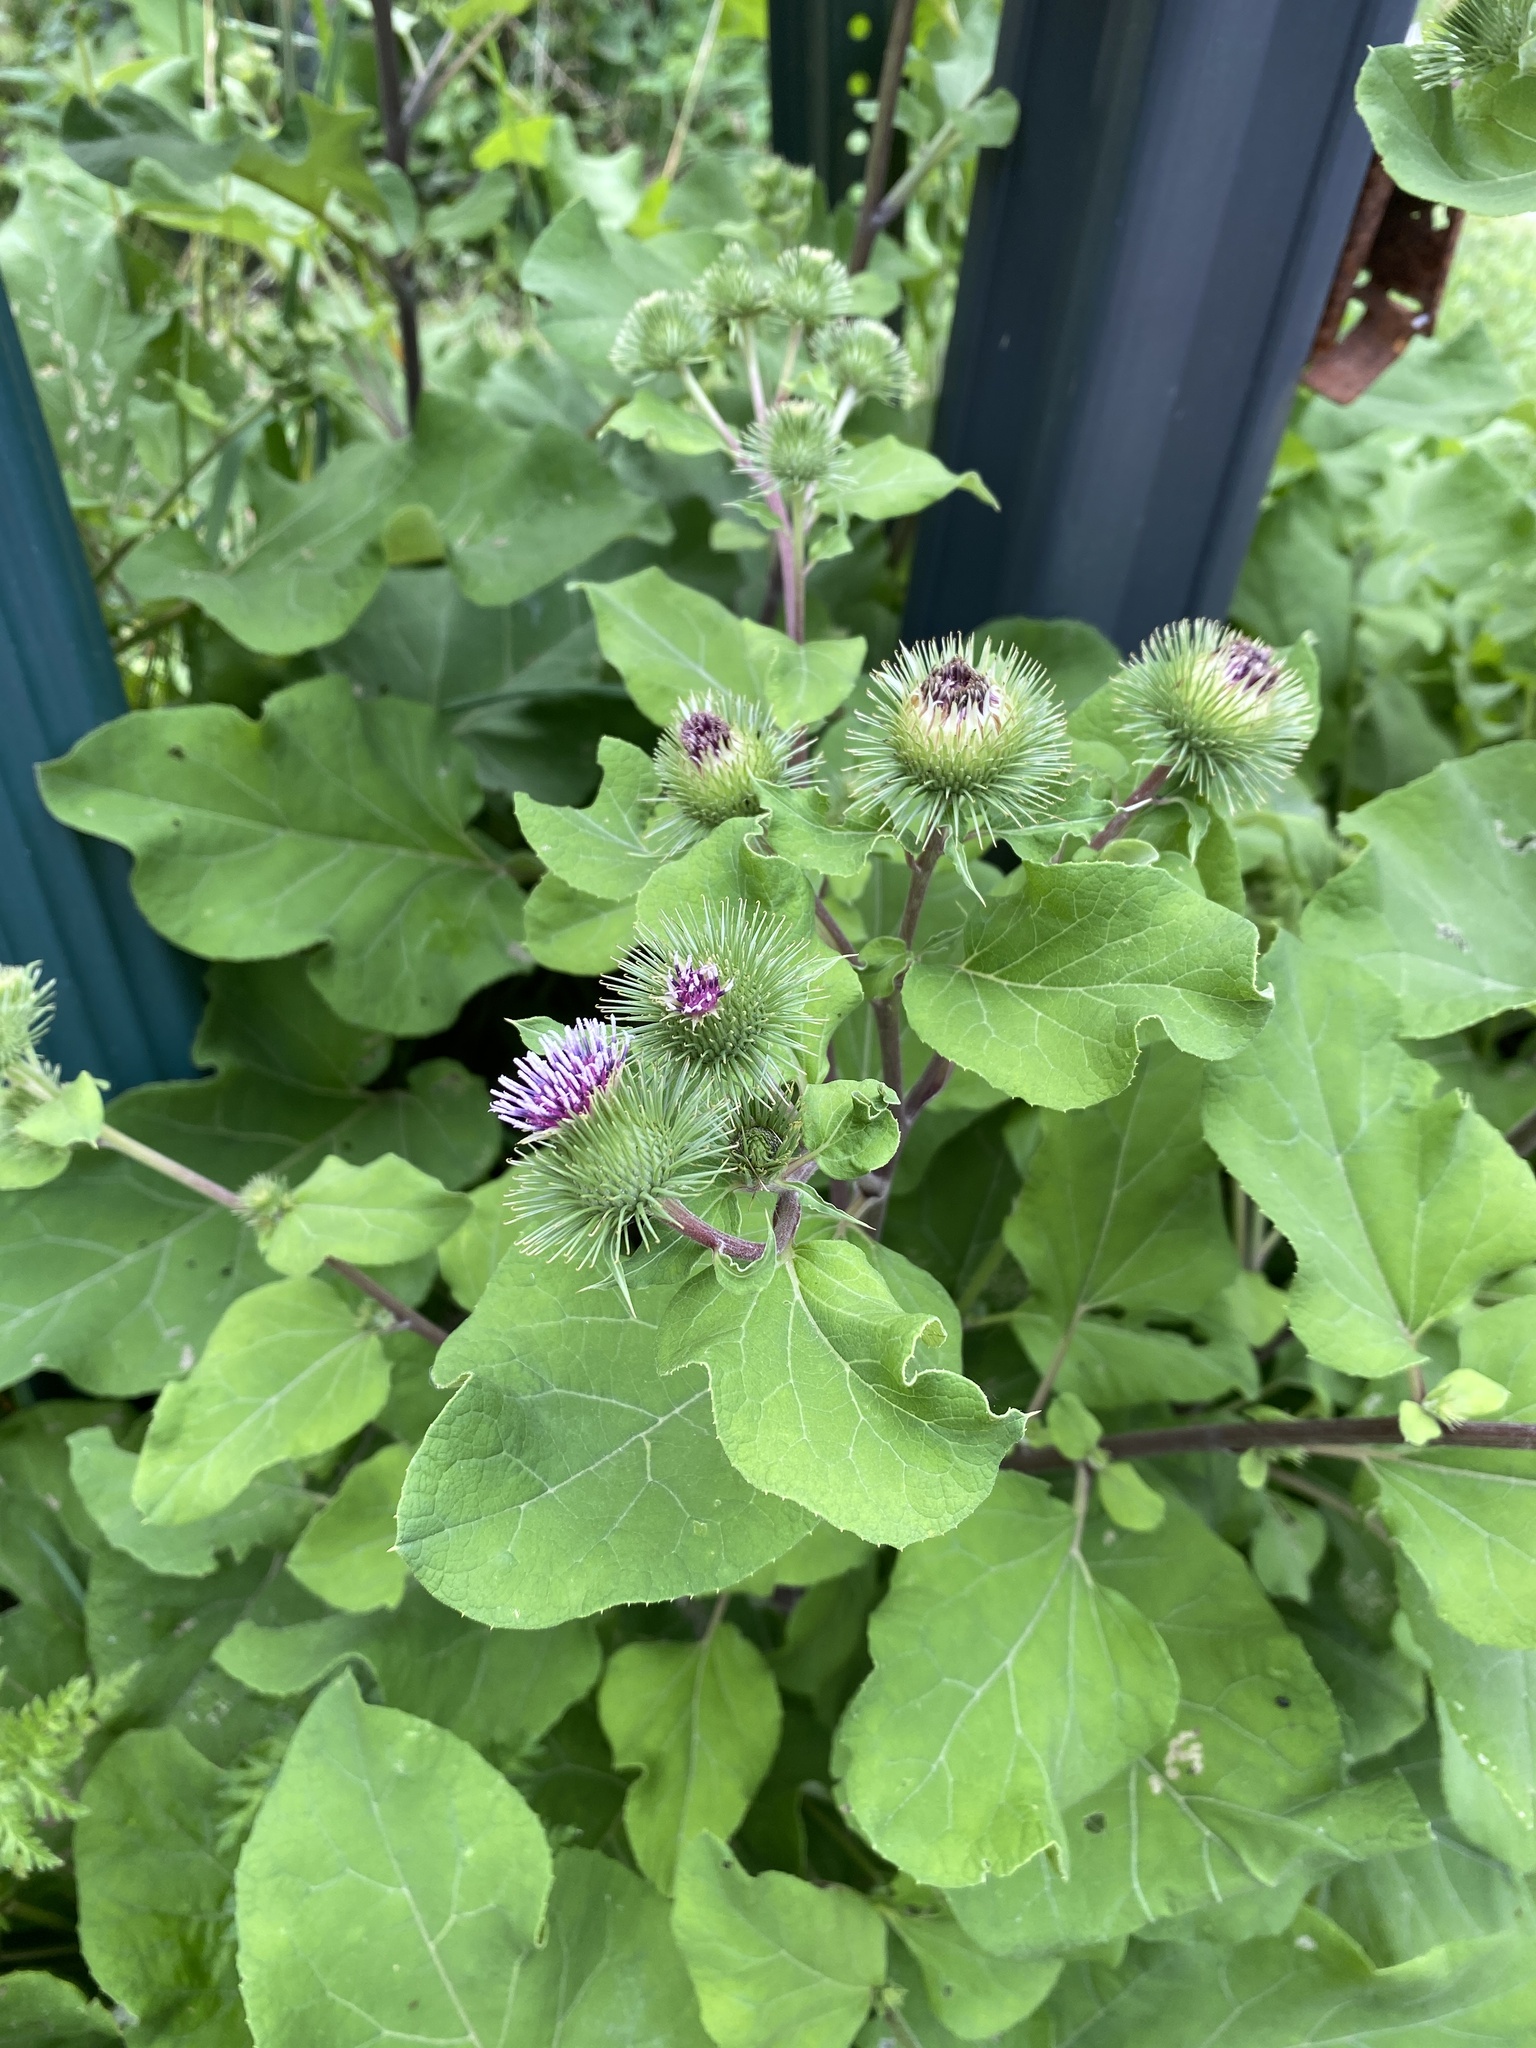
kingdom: Plantae
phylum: Tracheophyta
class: Magnoliopsida
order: Asterales
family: Asteraceae
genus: Arctium
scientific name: Arctium lappa
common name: Greater burdock
